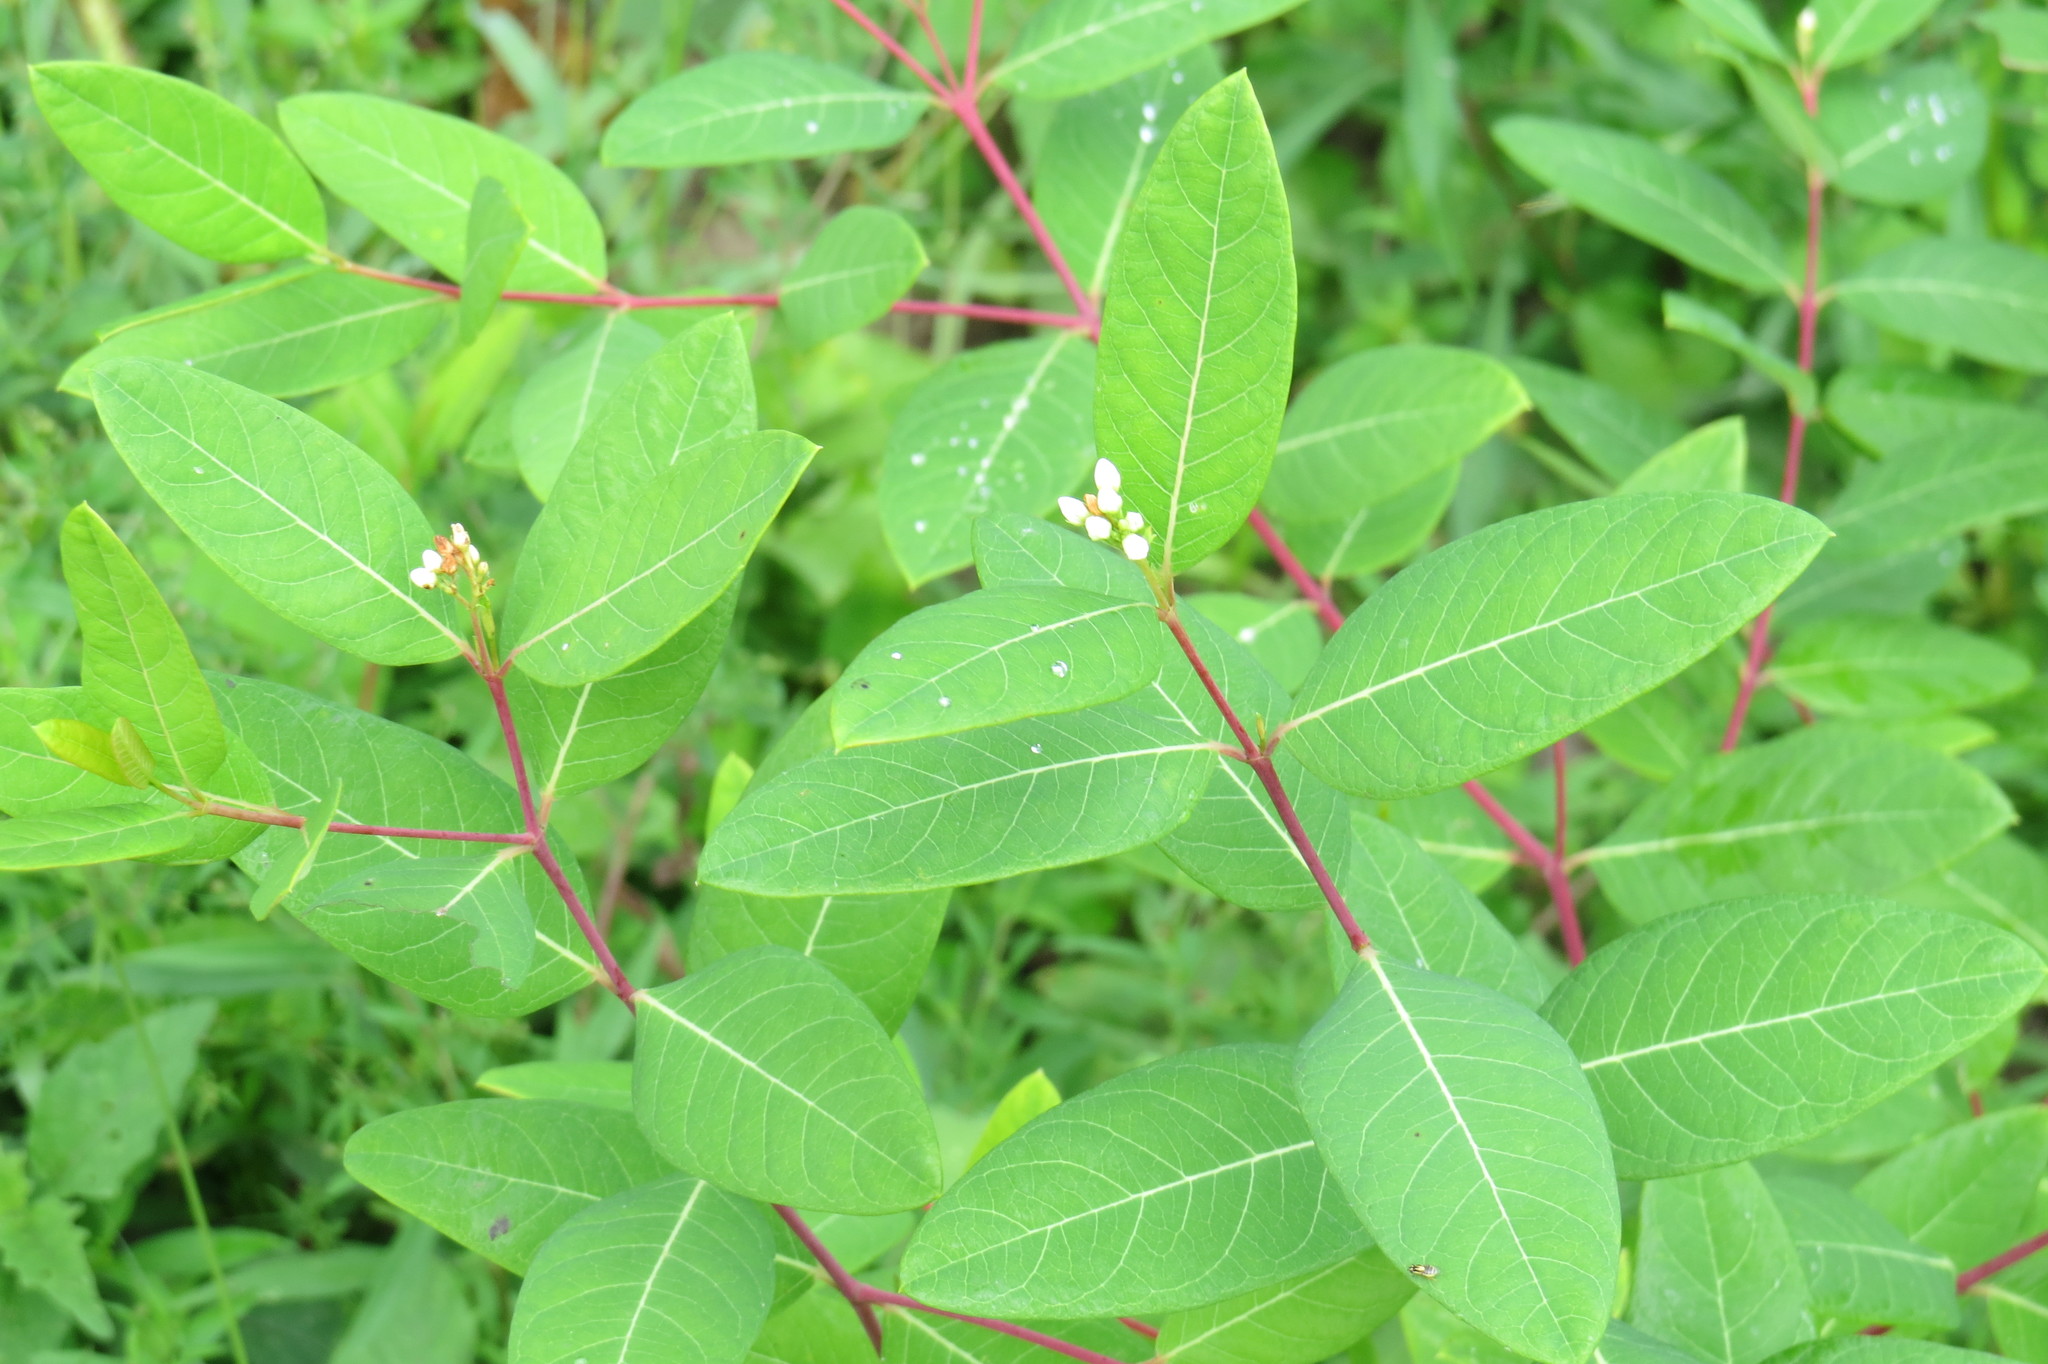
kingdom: Plantae
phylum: Tracheophyta
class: Magnoliopsida
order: Gentianales
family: Apocynaceae
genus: Apocynum
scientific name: Apocynum cannabinum
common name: Hemp dogbane
